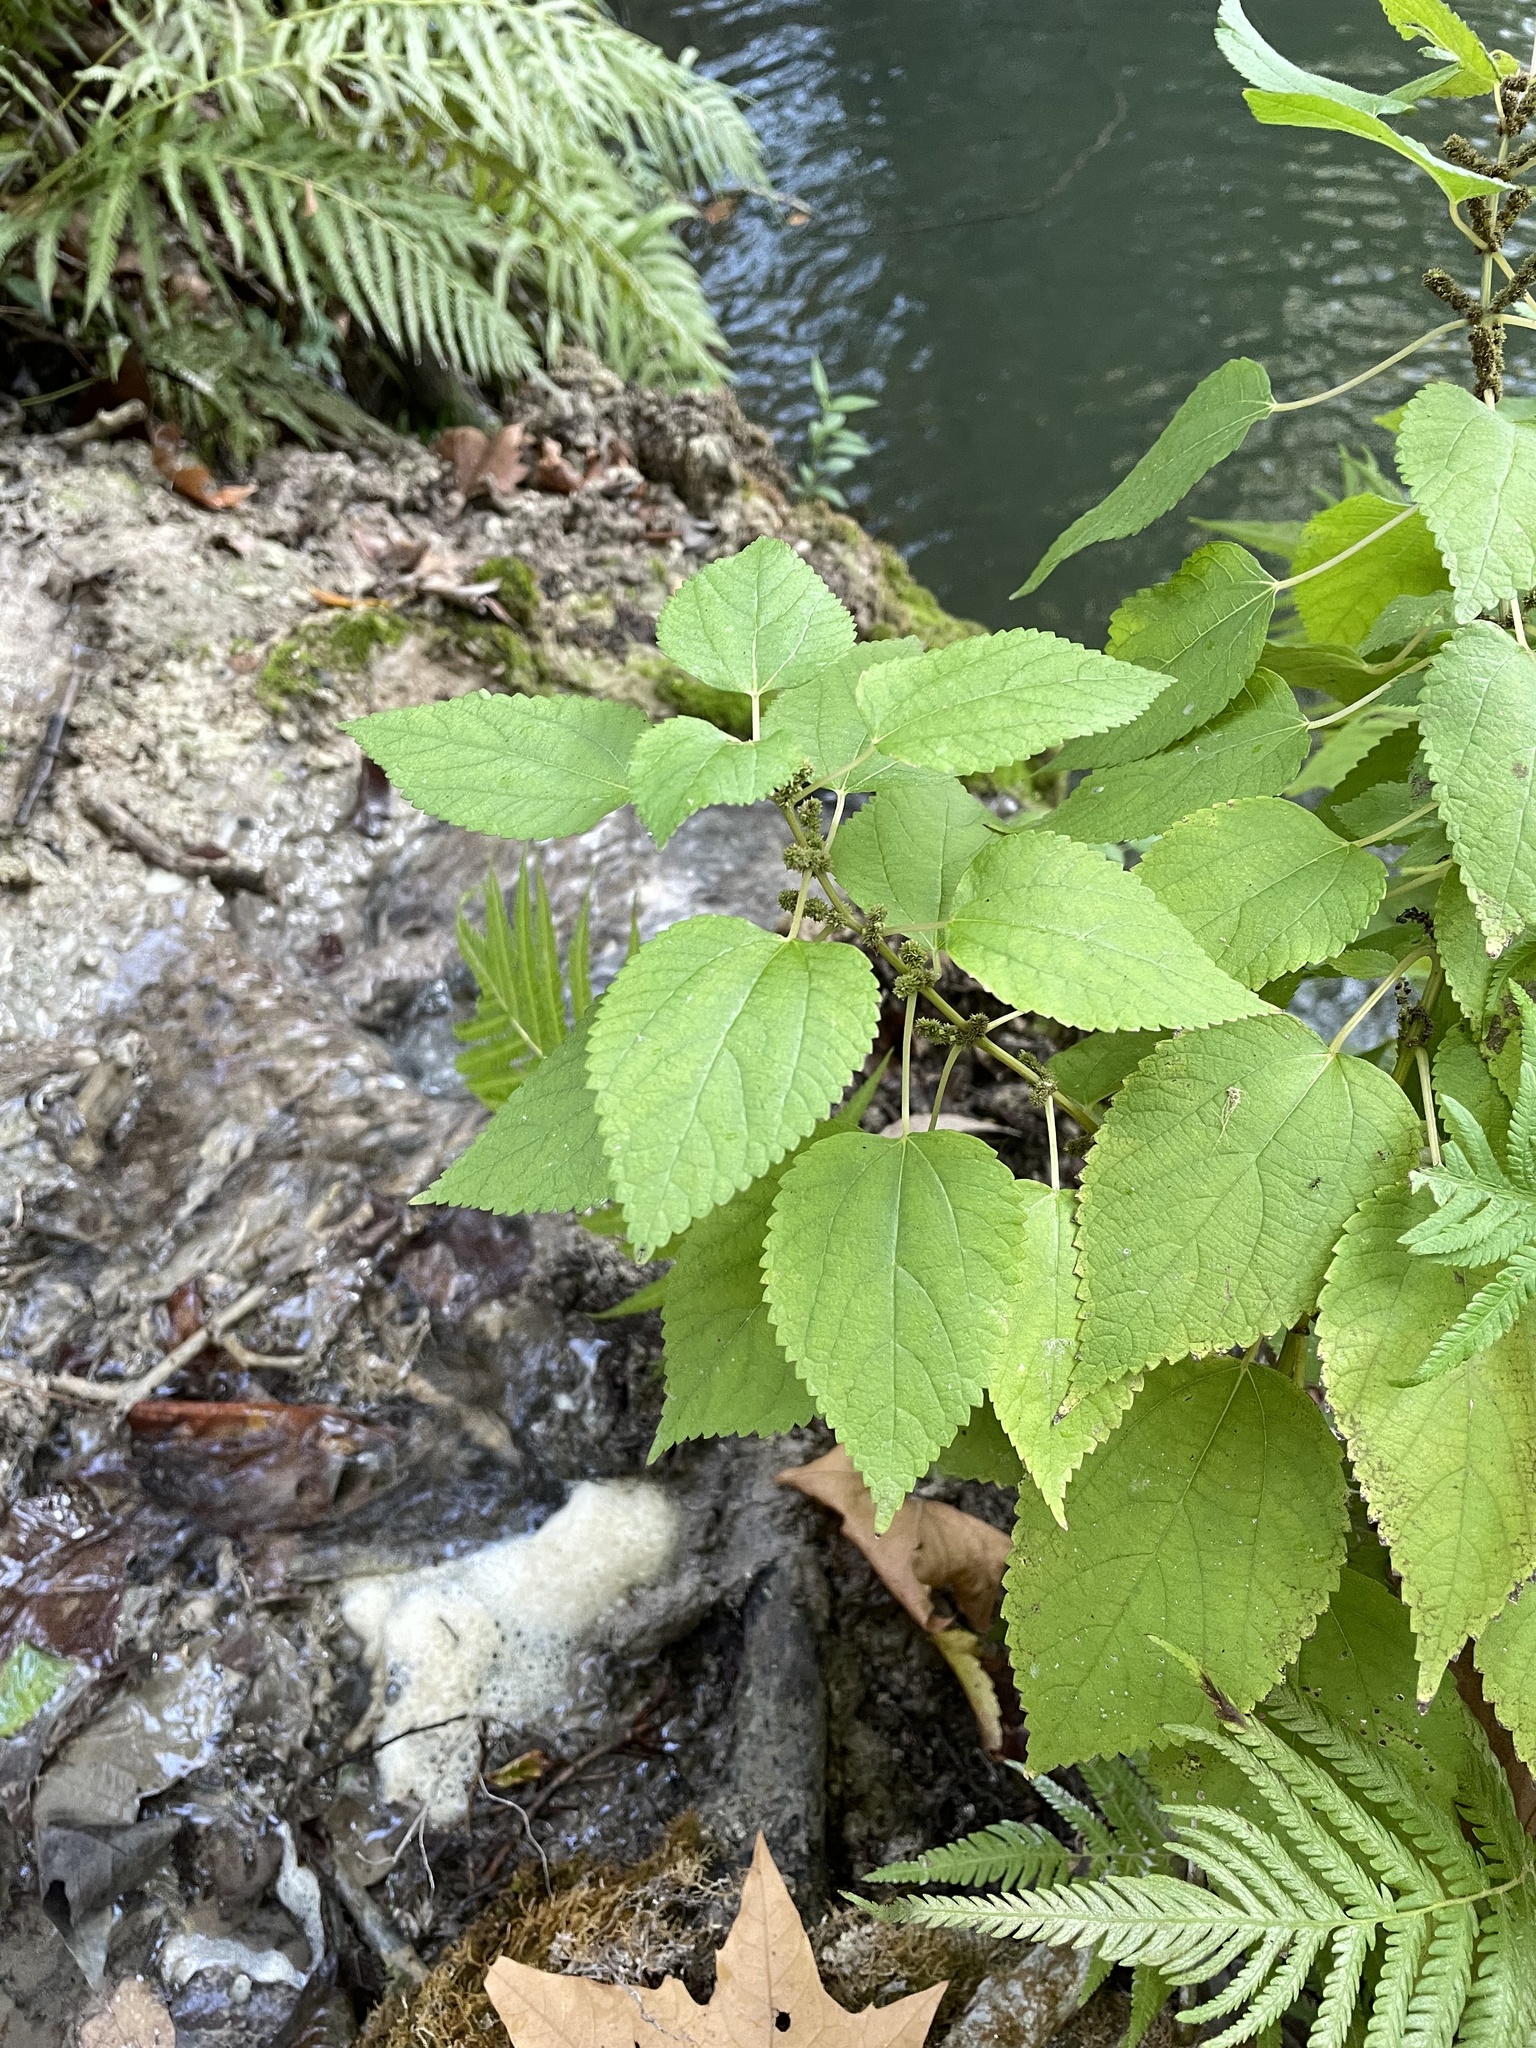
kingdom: Plantae
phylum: Tracheophyta
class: Magnoliopsida
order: Rosales
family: Urticaceae
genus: Boehmeria
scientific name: Boehmeria cylindrica
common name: Bog-hemp
